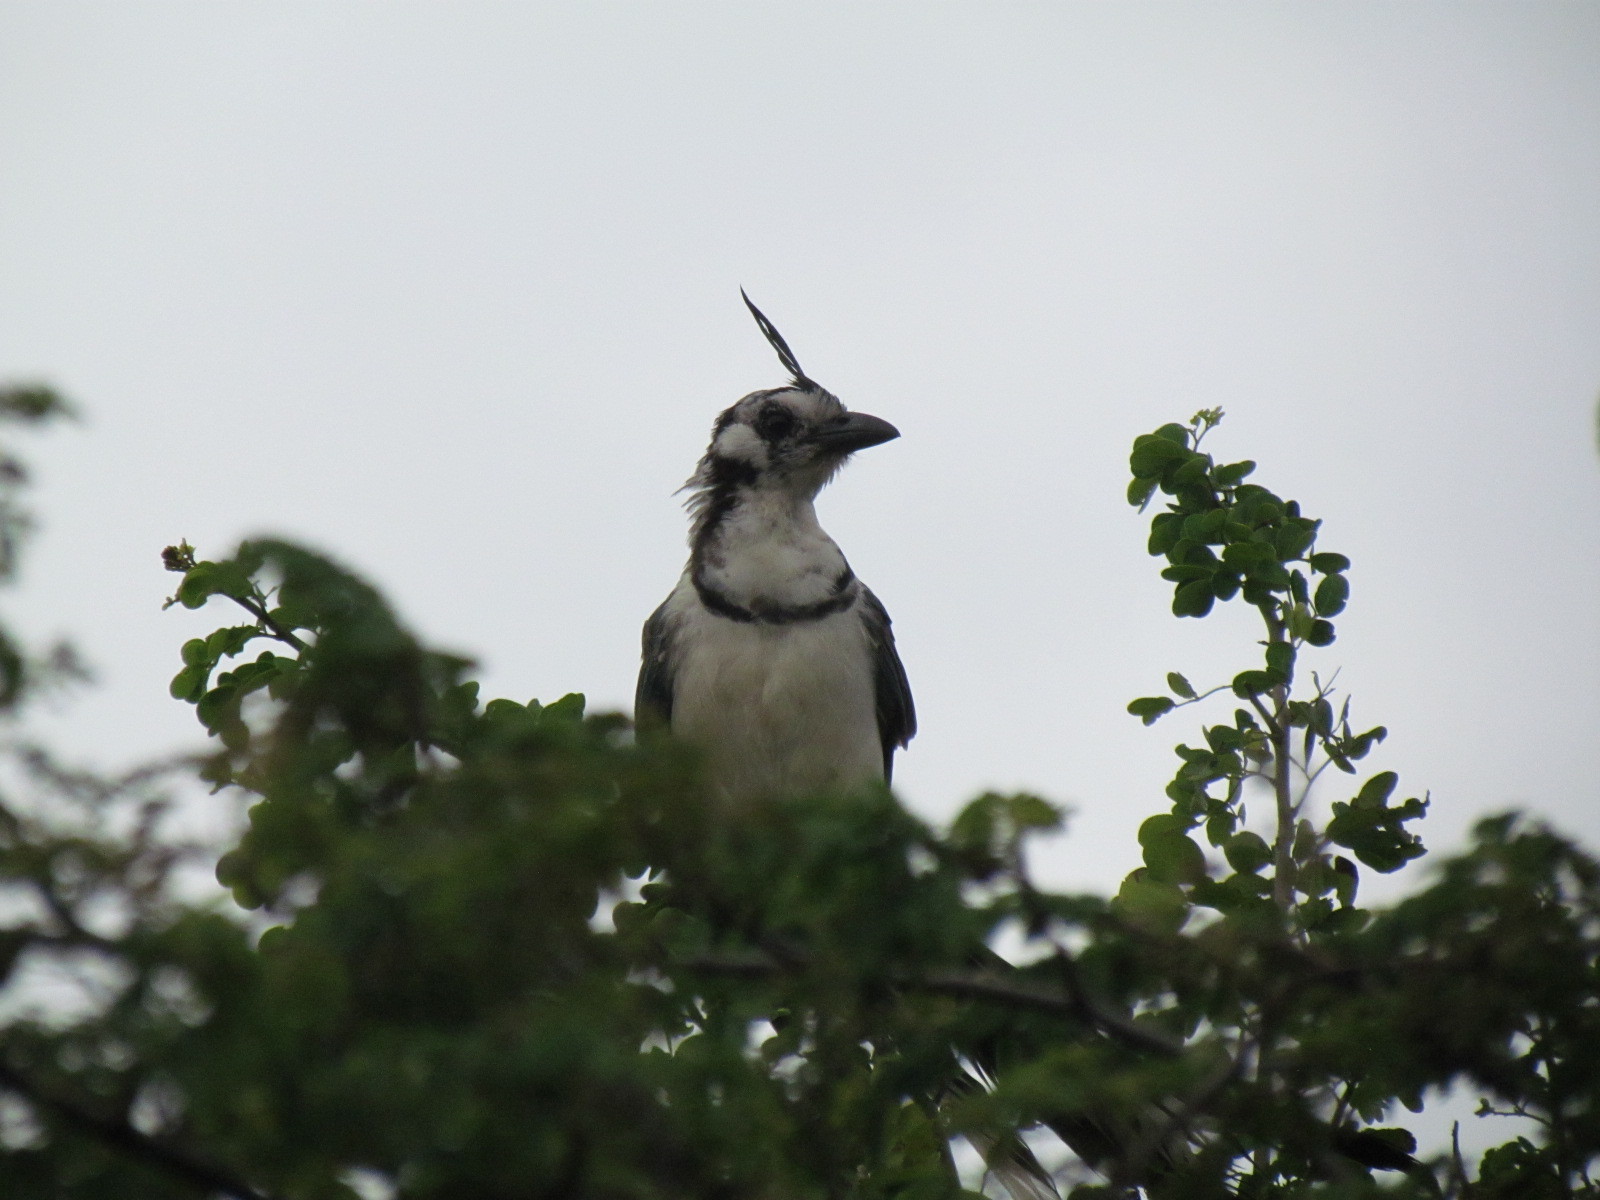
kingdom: Animalia
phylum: Chordata
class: Aves
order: Passeriformes
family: Corvidae
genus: Calocitta
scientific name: Calocitta formosa
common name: White-throated magpie-jay
